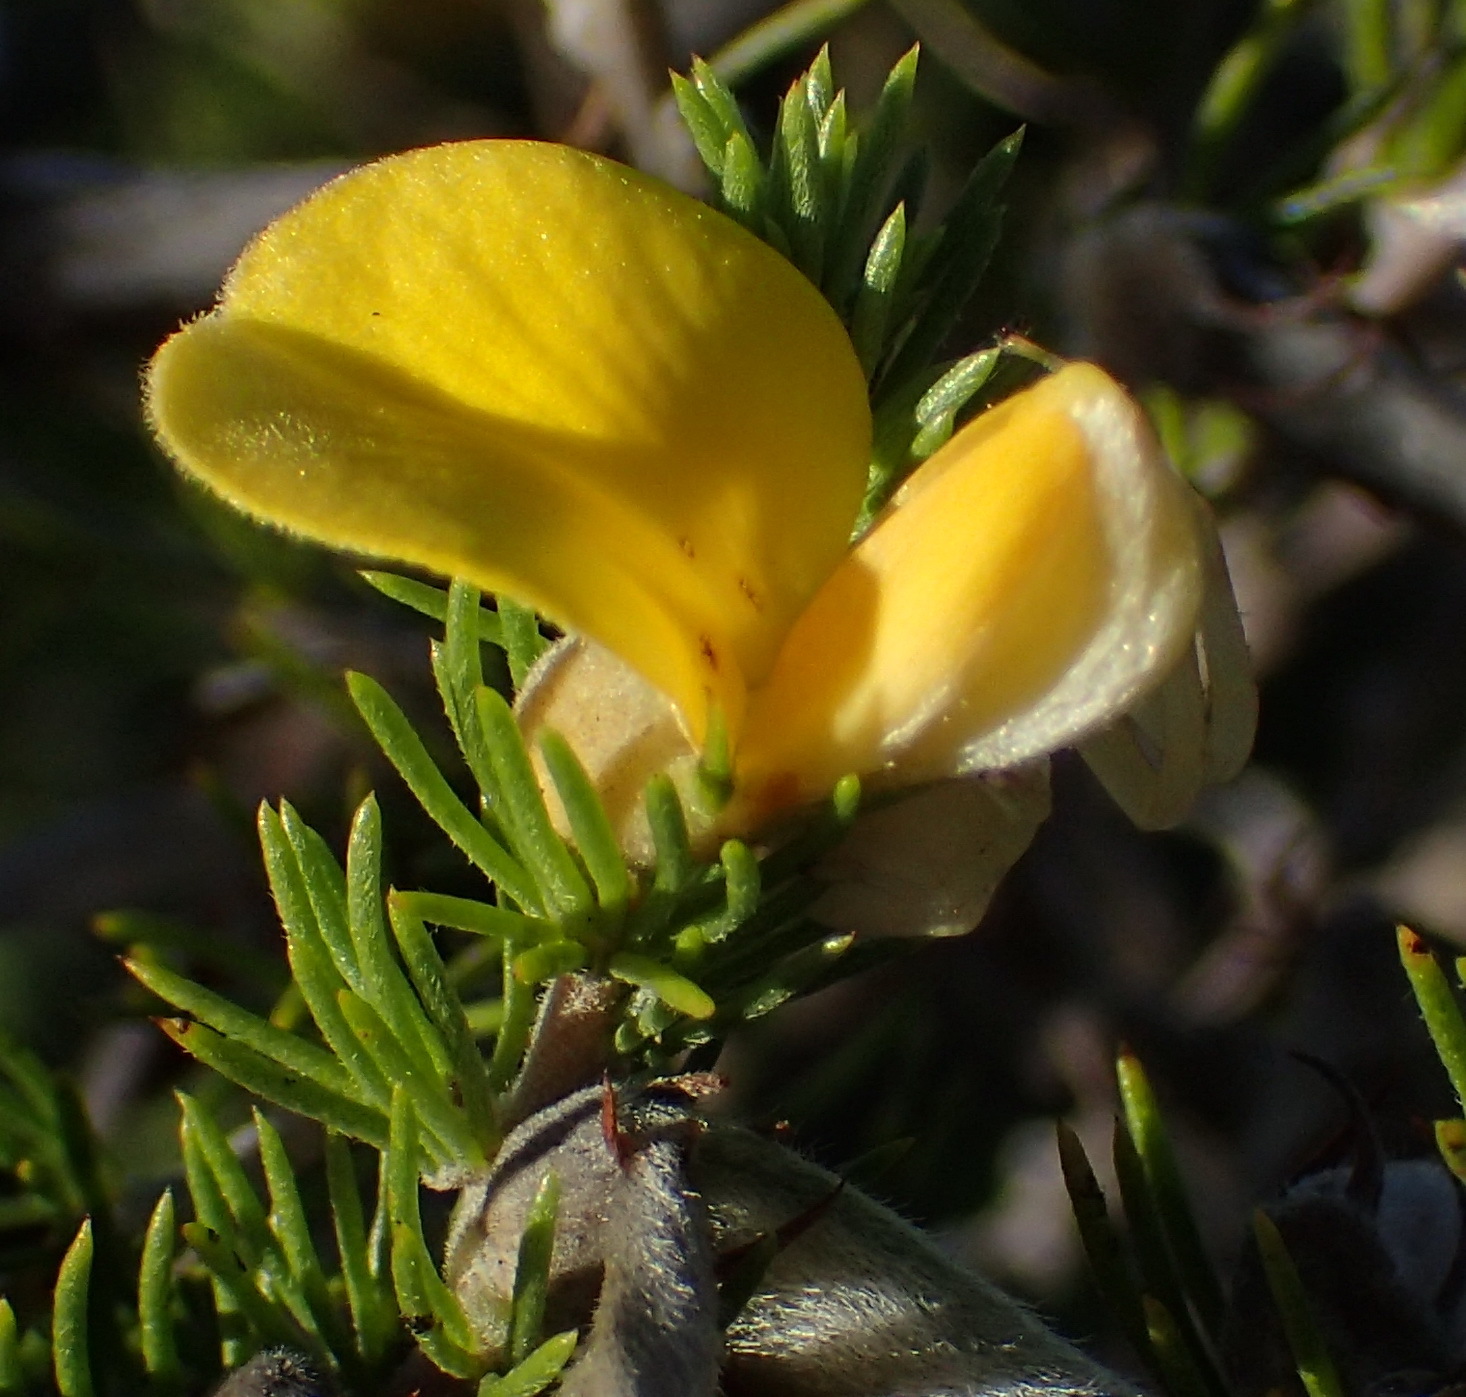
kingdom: Plantae
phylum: Tracheophyta
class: Magnoliopsida
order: Fabales
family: Fabaceae
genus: Aspalathus
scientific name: Aspalathus kougaensis
